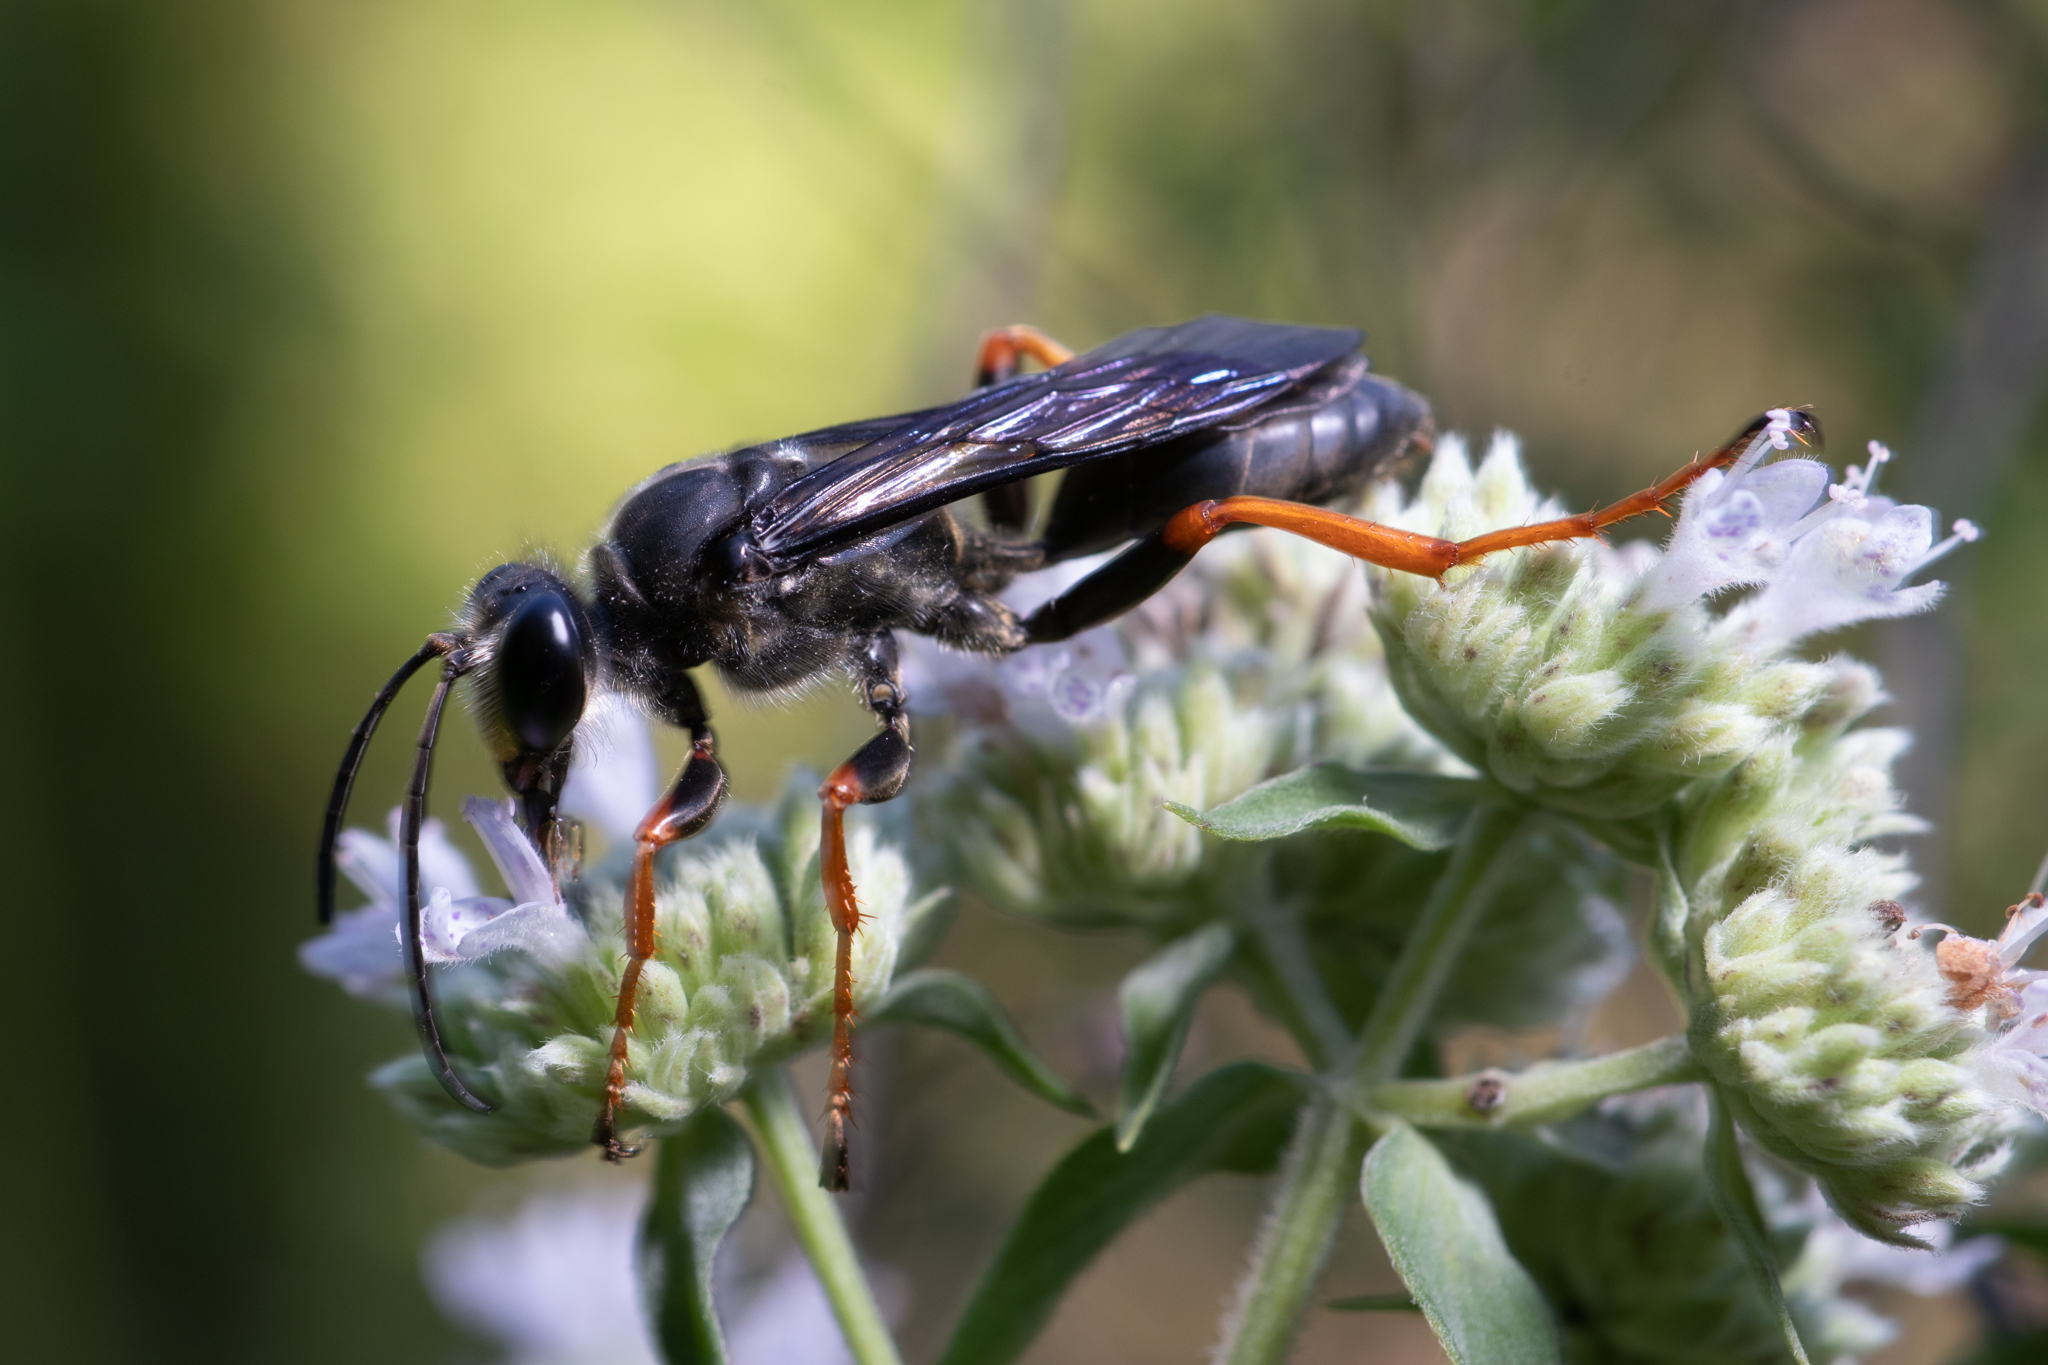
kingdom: Animalia
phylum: Arthropoda
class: Insecta
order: Hymenoptera
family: Sphecidae
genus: Sphex
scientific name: Sphex nudus
